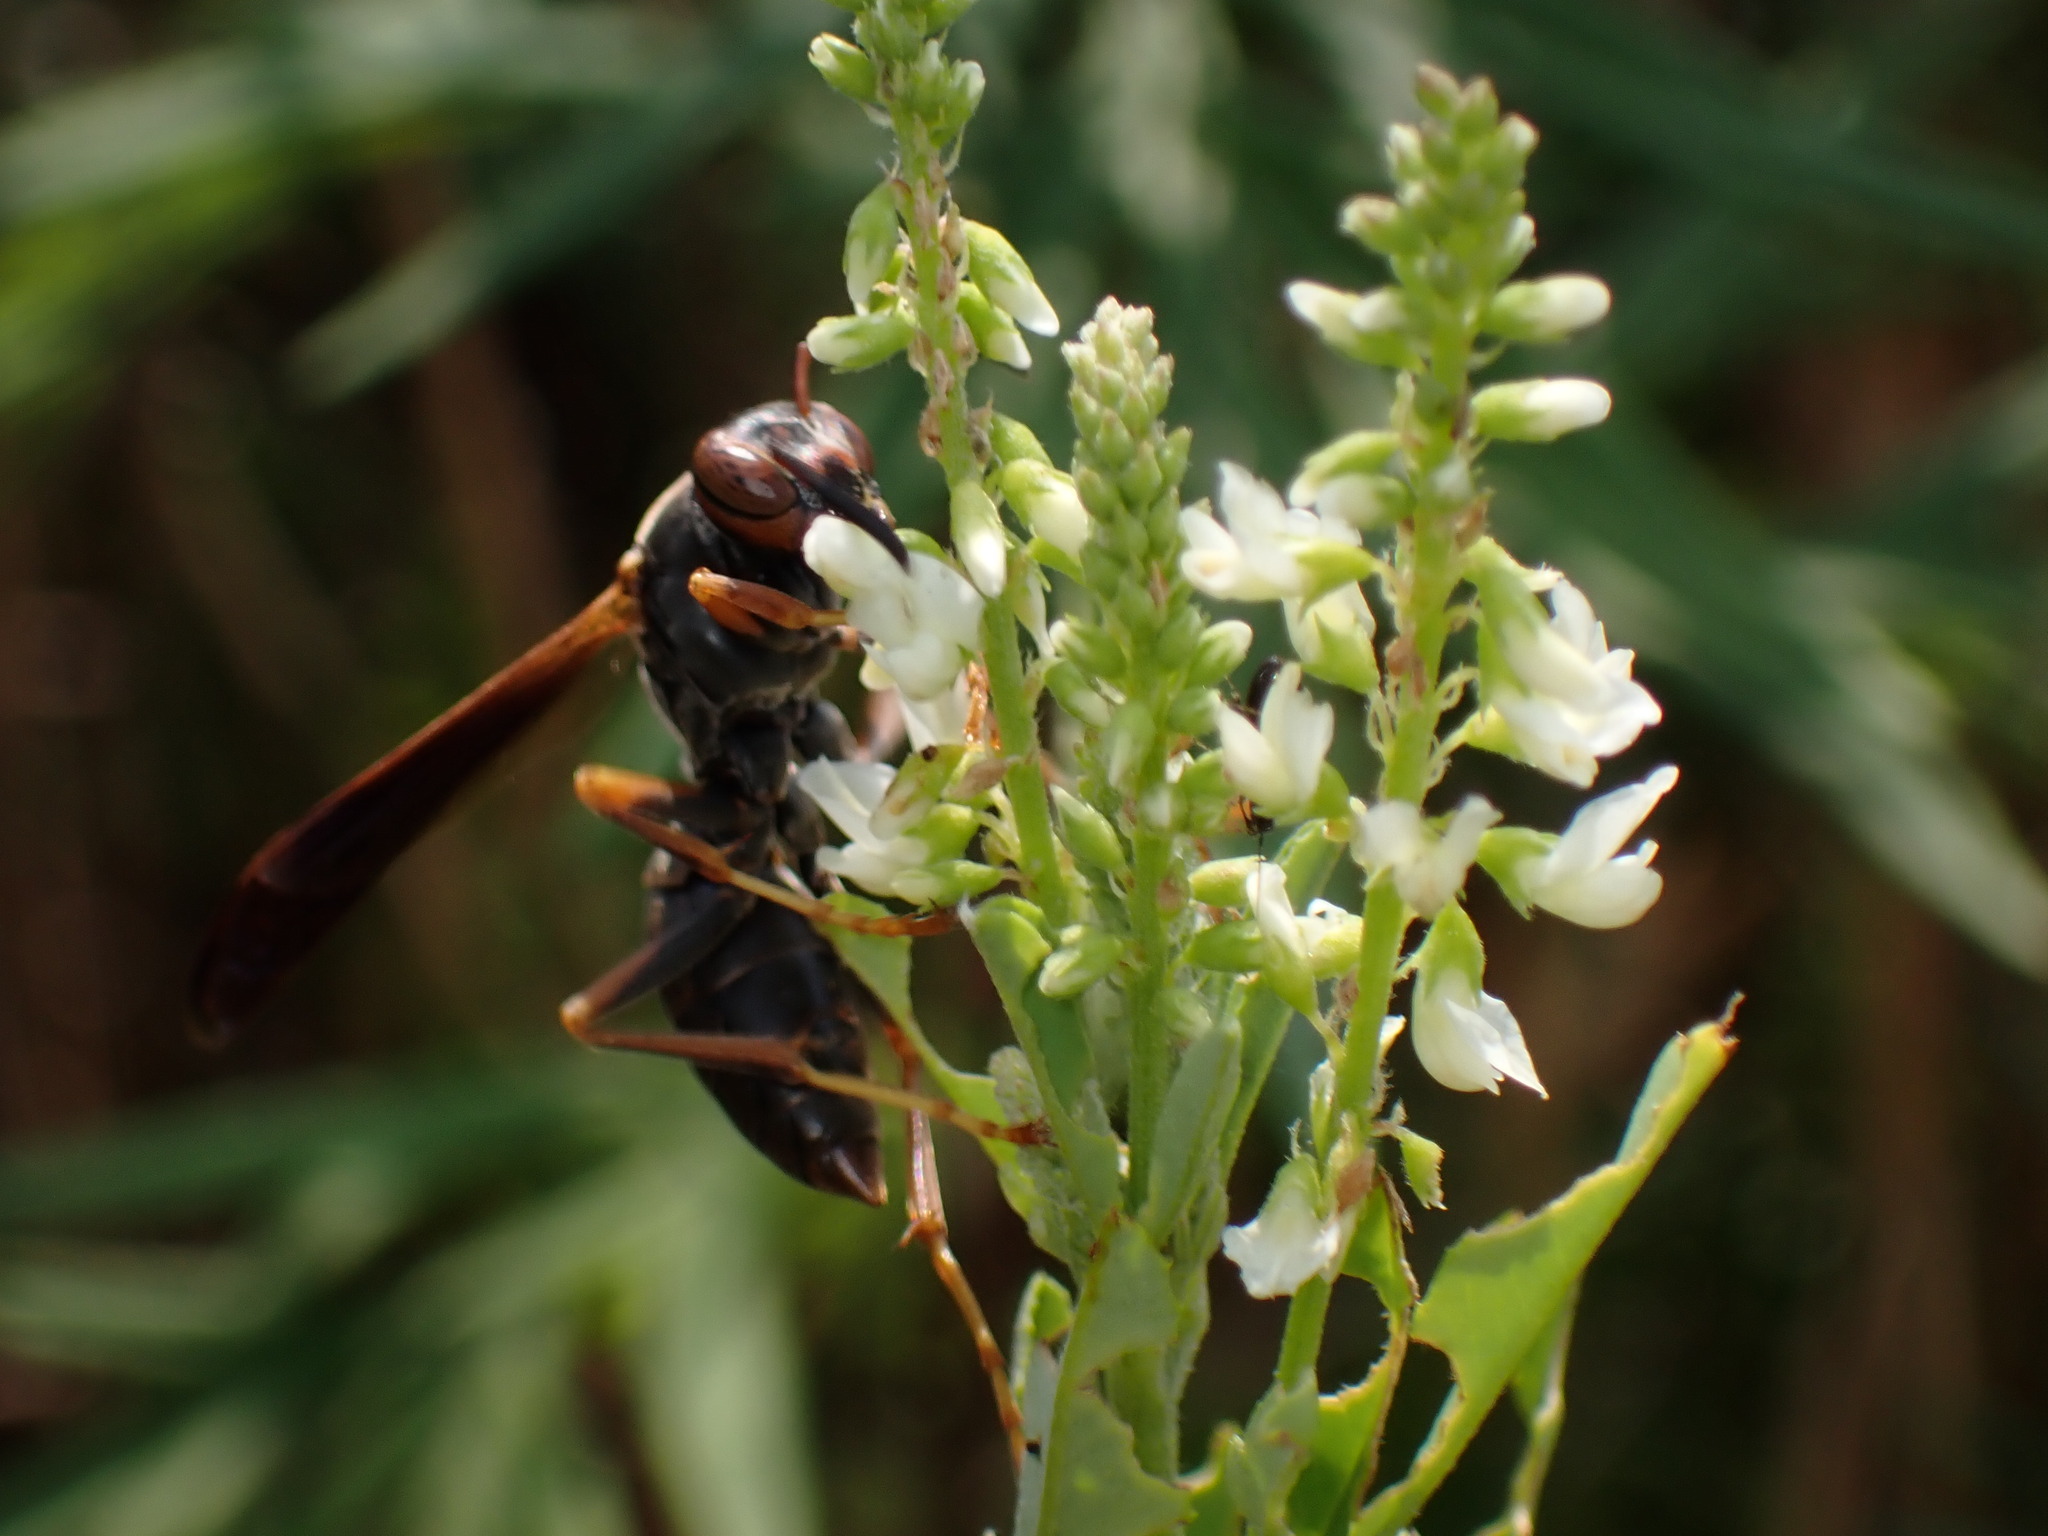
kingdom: Animalia
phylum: Arthropoda
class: Insecta
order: Hymenoptera
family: Eumenidae
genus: Polistes
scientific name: Polistes fuscatus
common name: Dark paper wasp
